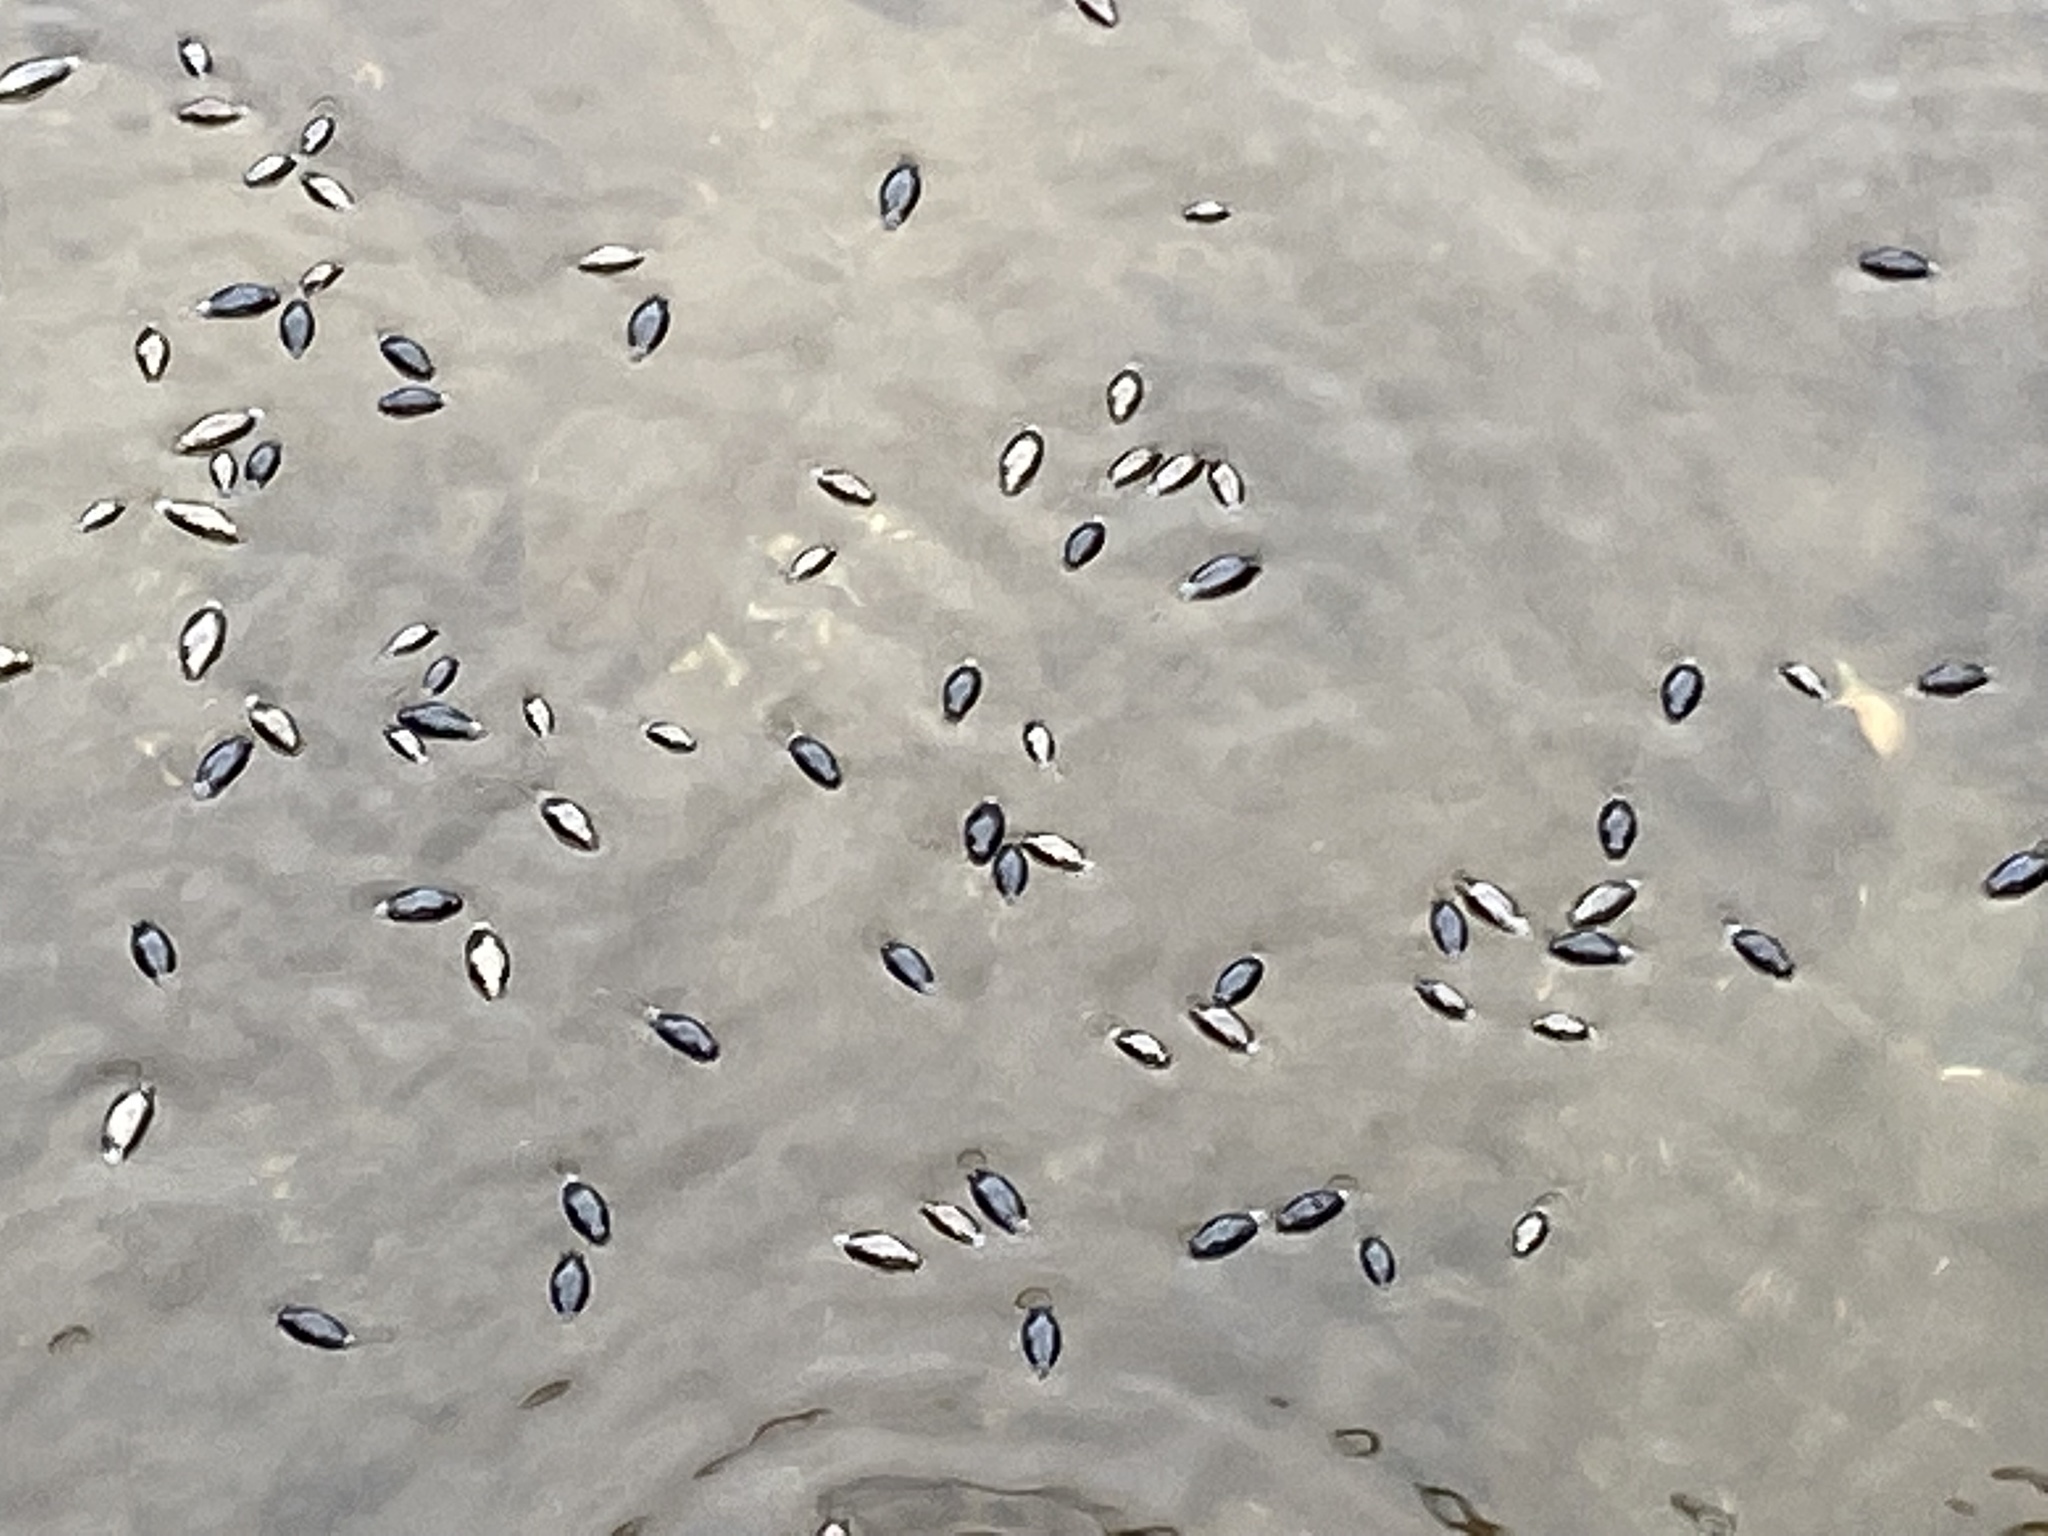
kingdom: Animalia
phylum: Arthropoda
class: Insecta
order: Coleoptera
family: Gyrinidae
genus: Gyrinus
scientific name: Gyrinus
